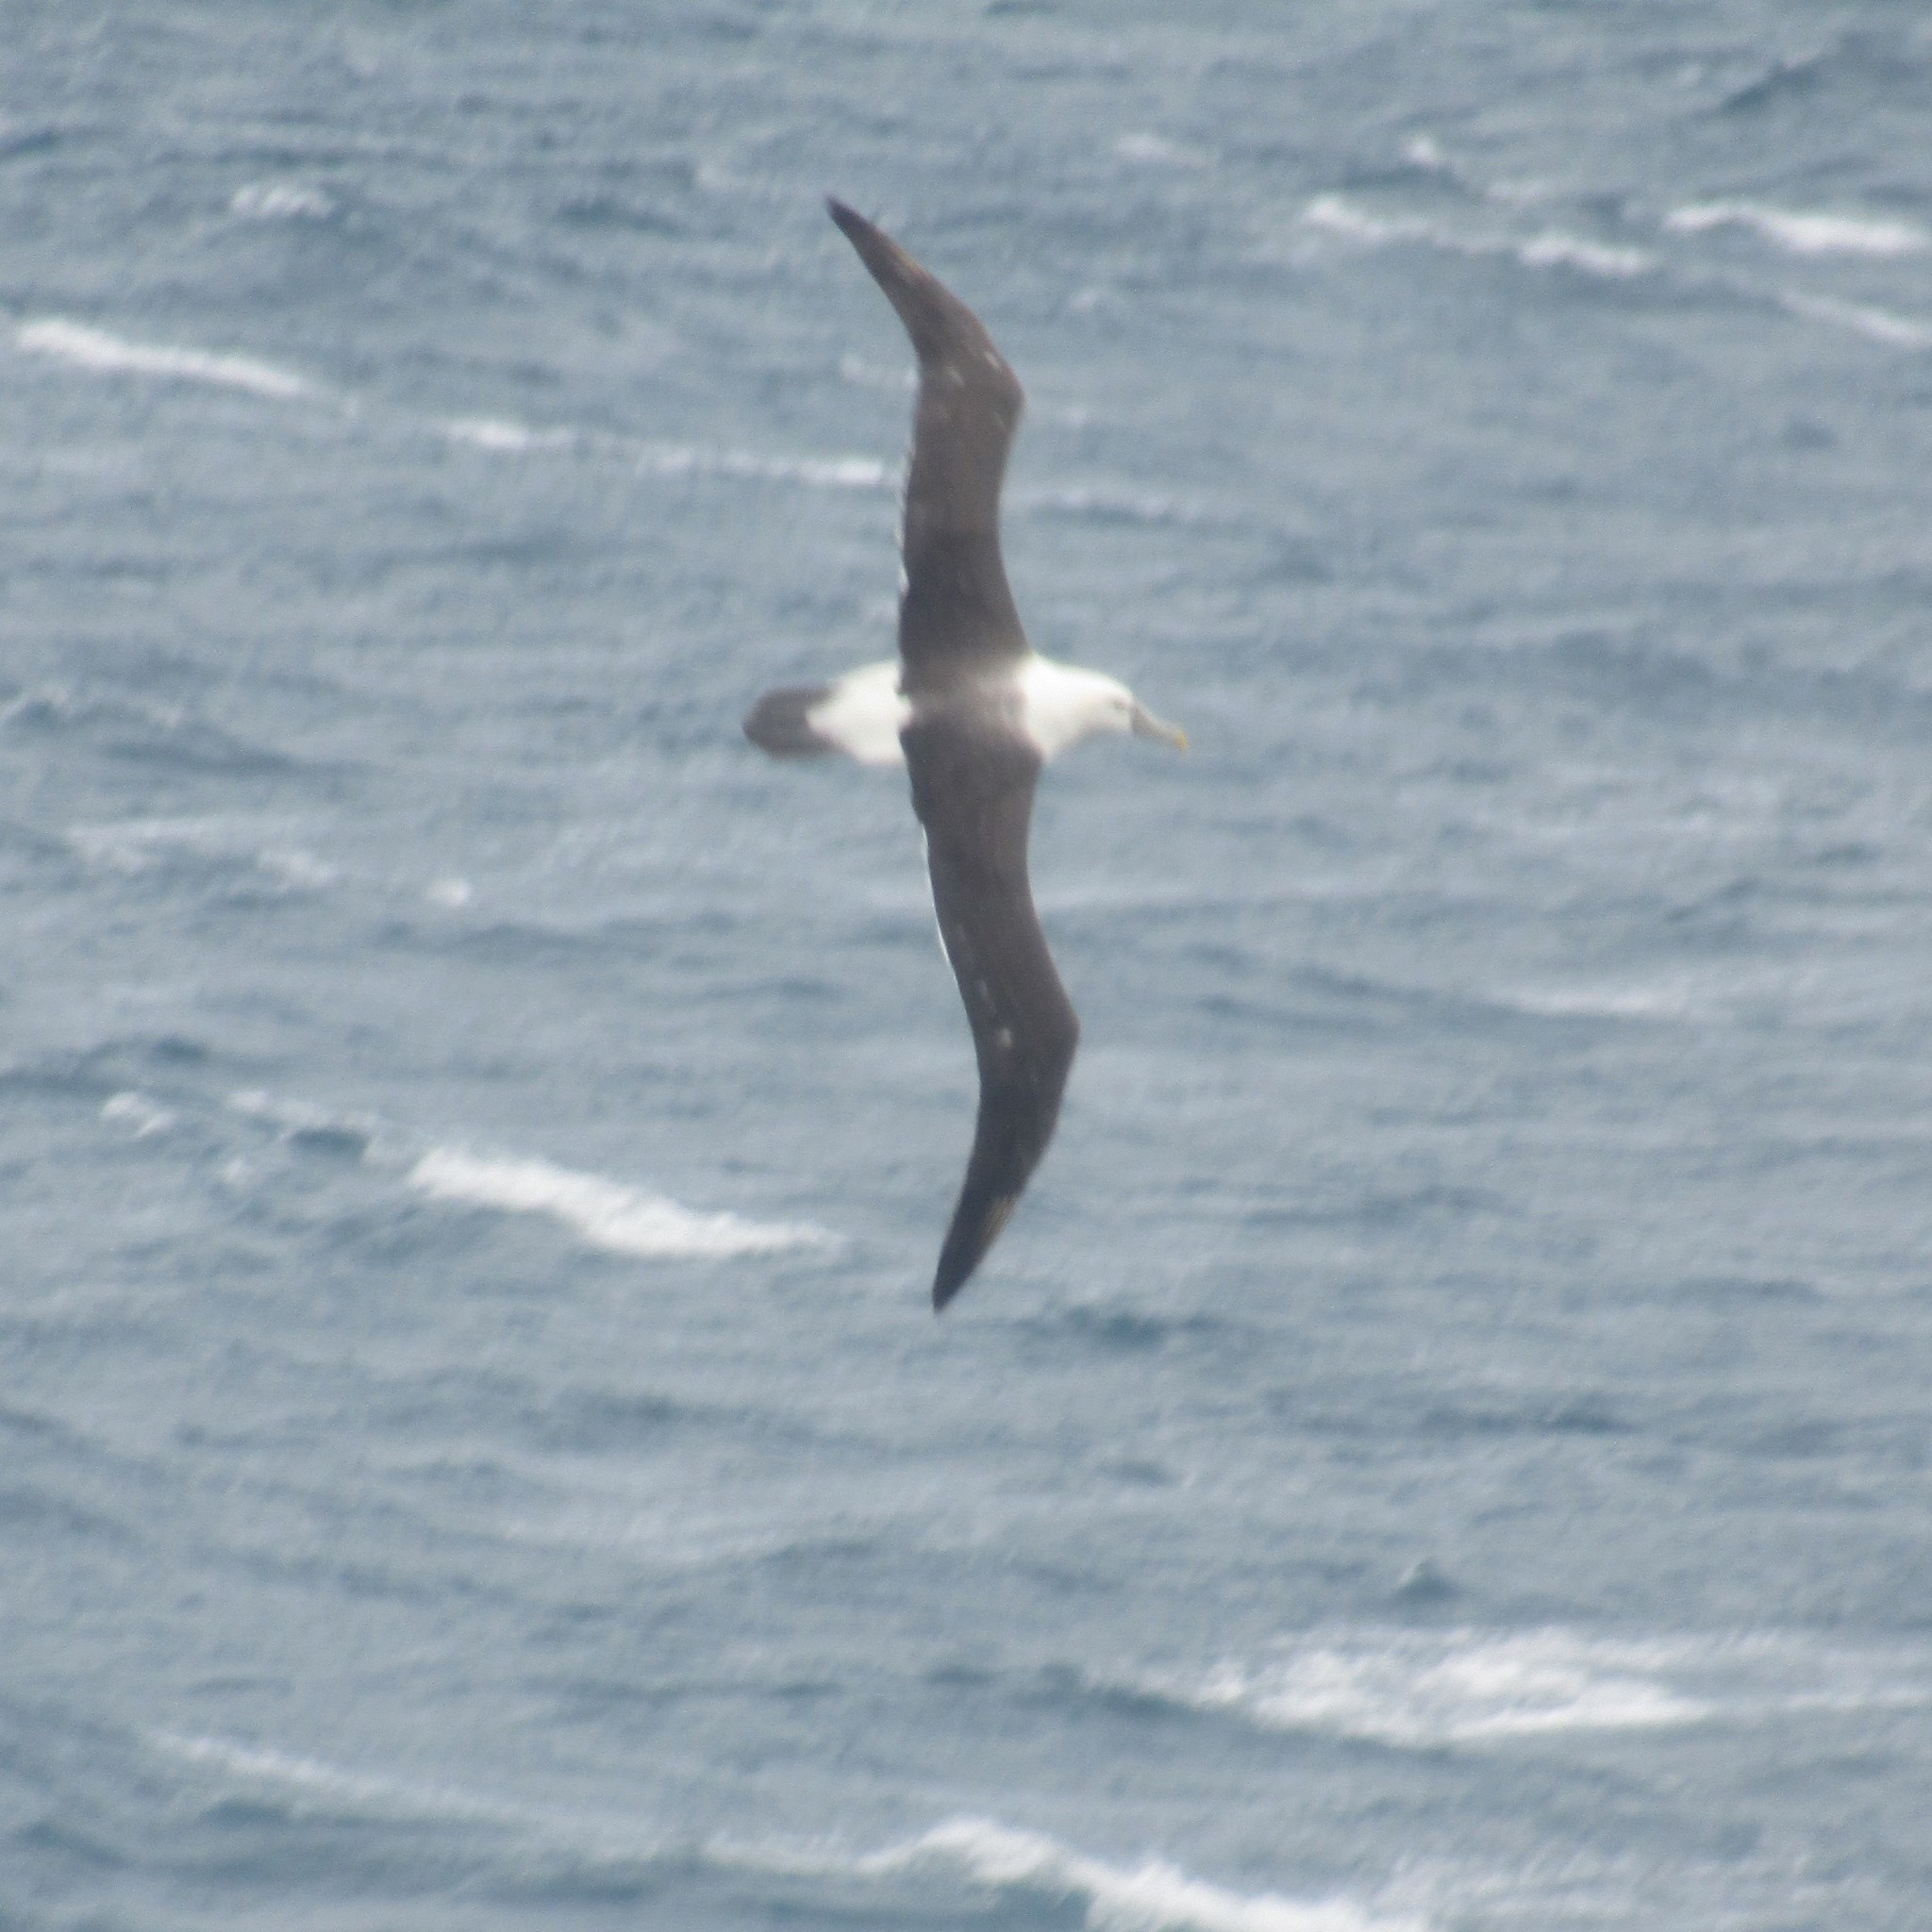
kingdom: Animalia
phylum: Chordata
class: Aves
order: Procellariiformes
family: Diomedeidae
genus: Thalassarche
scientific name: Thalassarche cauta
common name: Shy albatross
